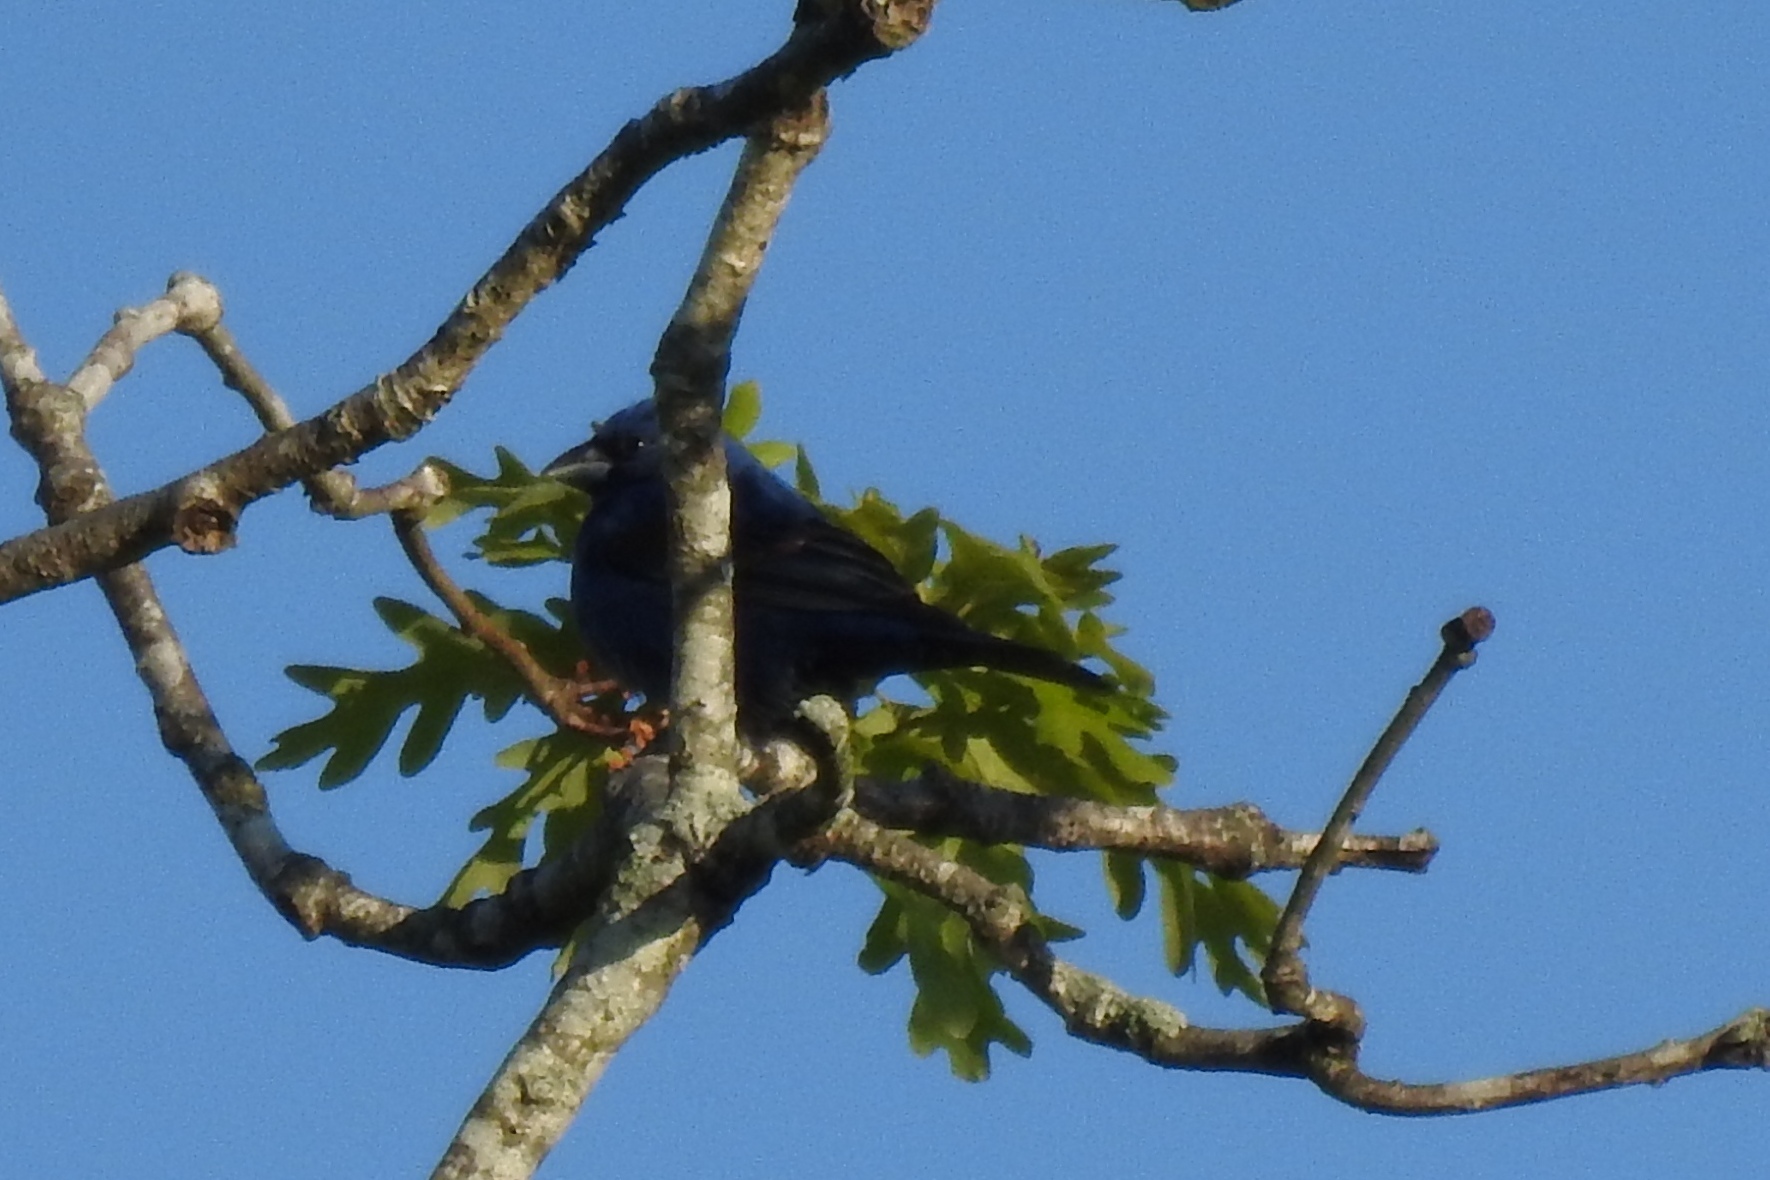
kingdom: Animalia
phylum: Chordata
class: Aves
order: Passeriformes
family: Cardinalidae
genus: Passerina
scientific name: Passerina cyanea
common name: Indigo bunting
